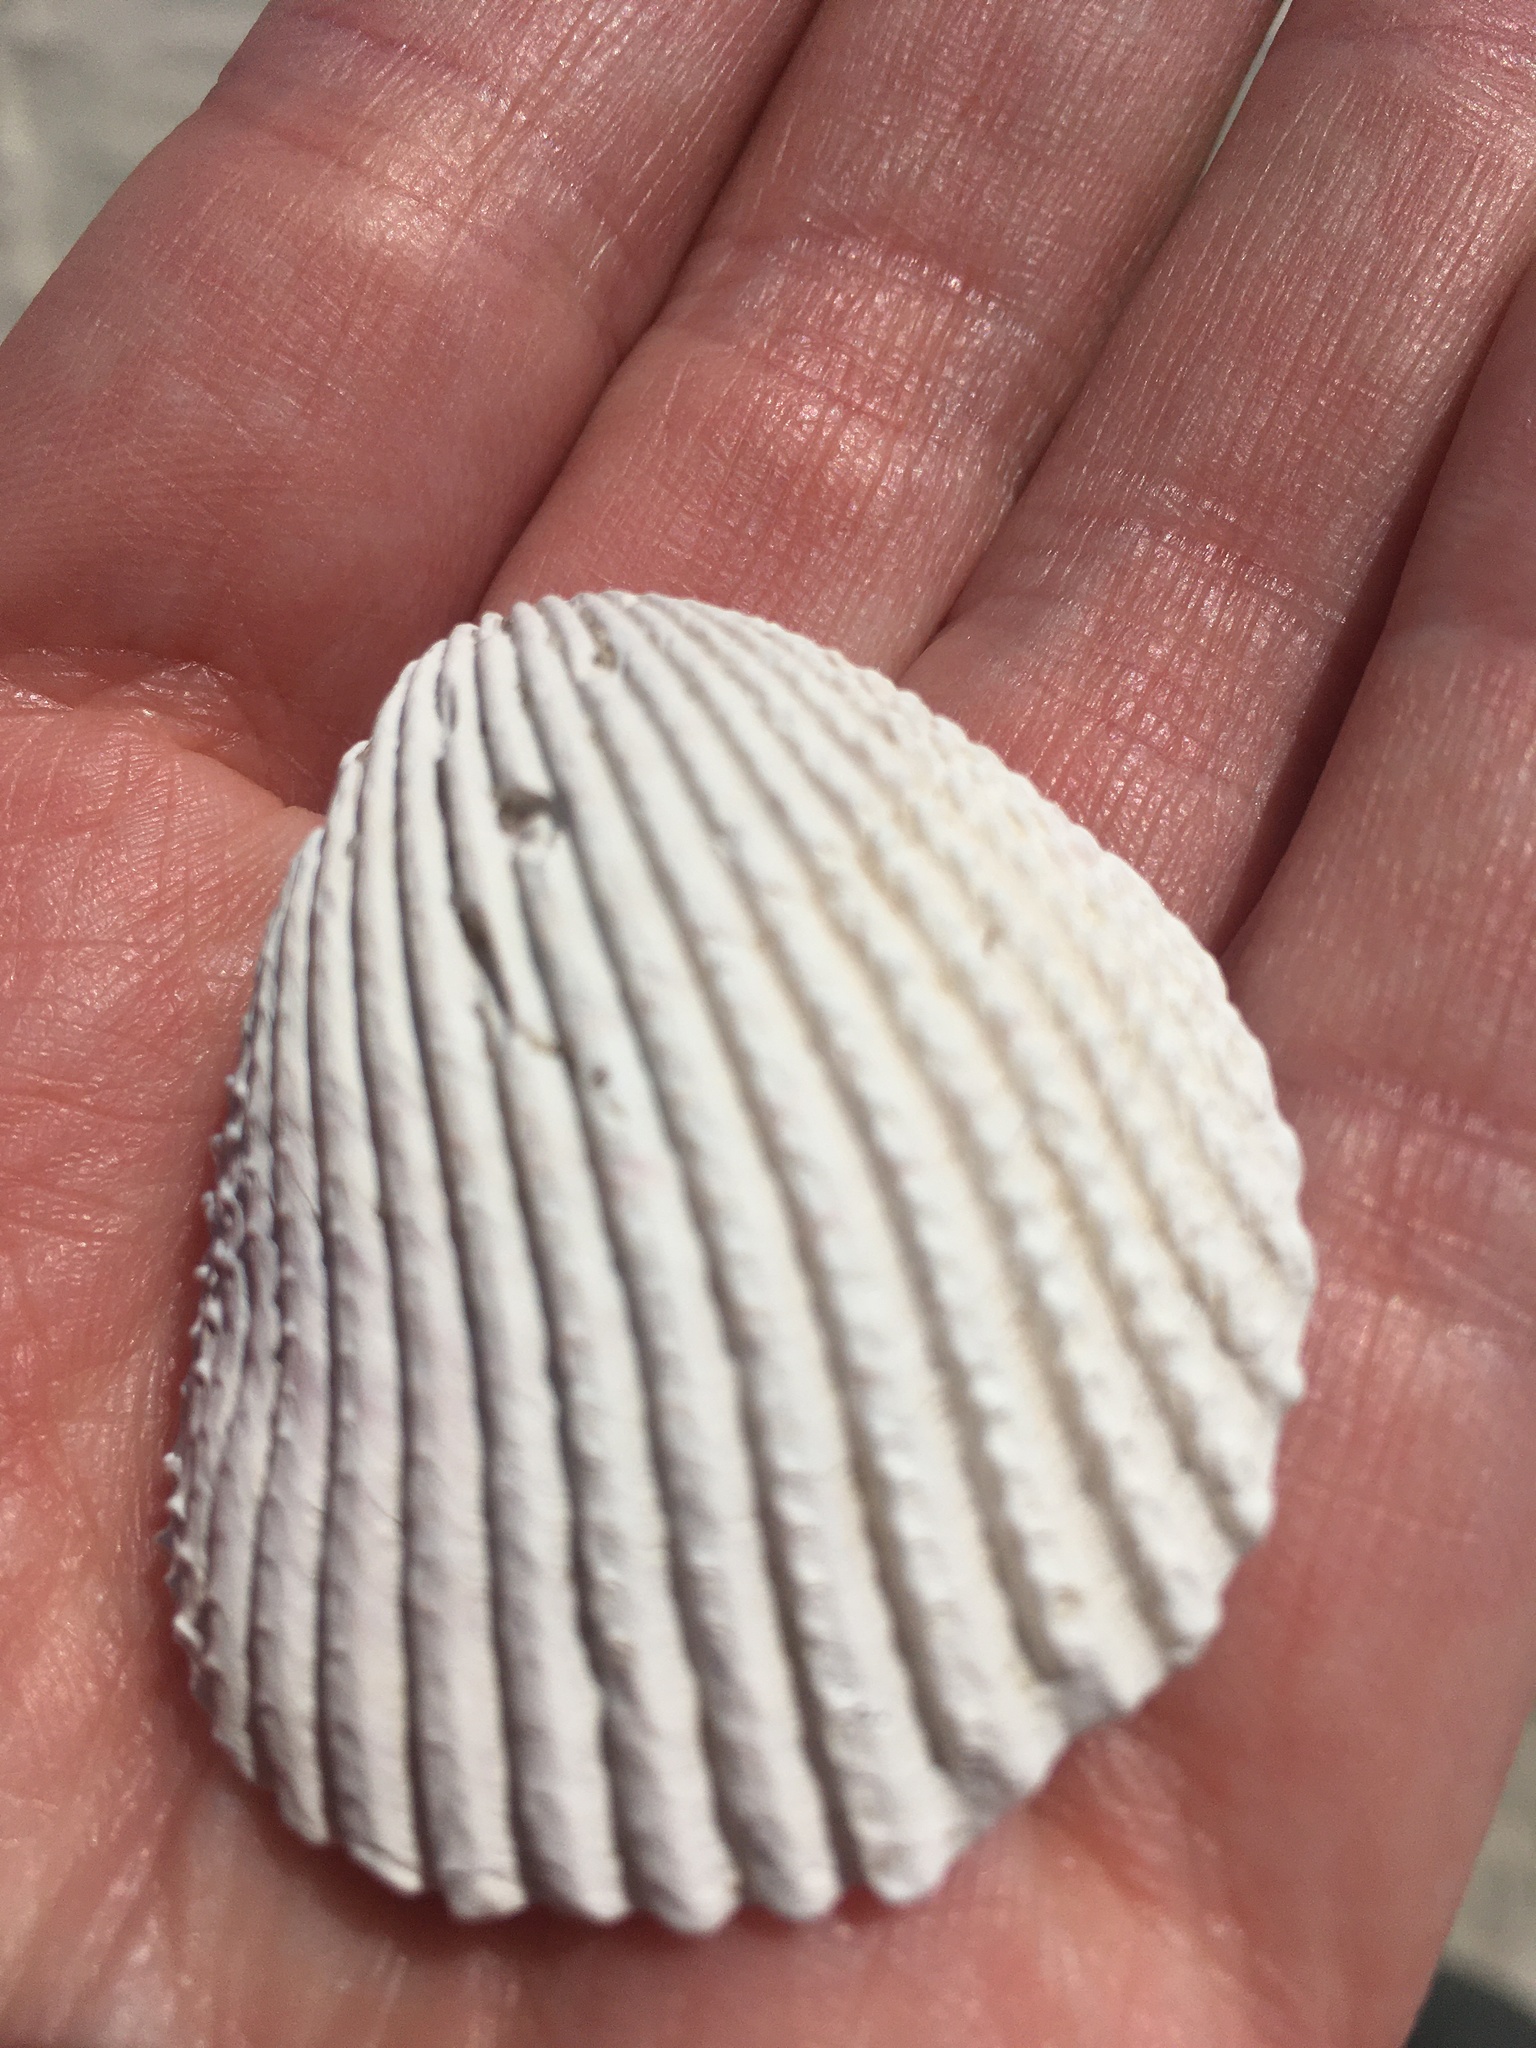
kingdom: Animalia
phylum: Mollusca
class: Bivalvia
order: Cardiida
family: Cardiidae
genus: Trachycardium
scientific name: Trachycardium egmontianum
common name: Florida pricklycockle
